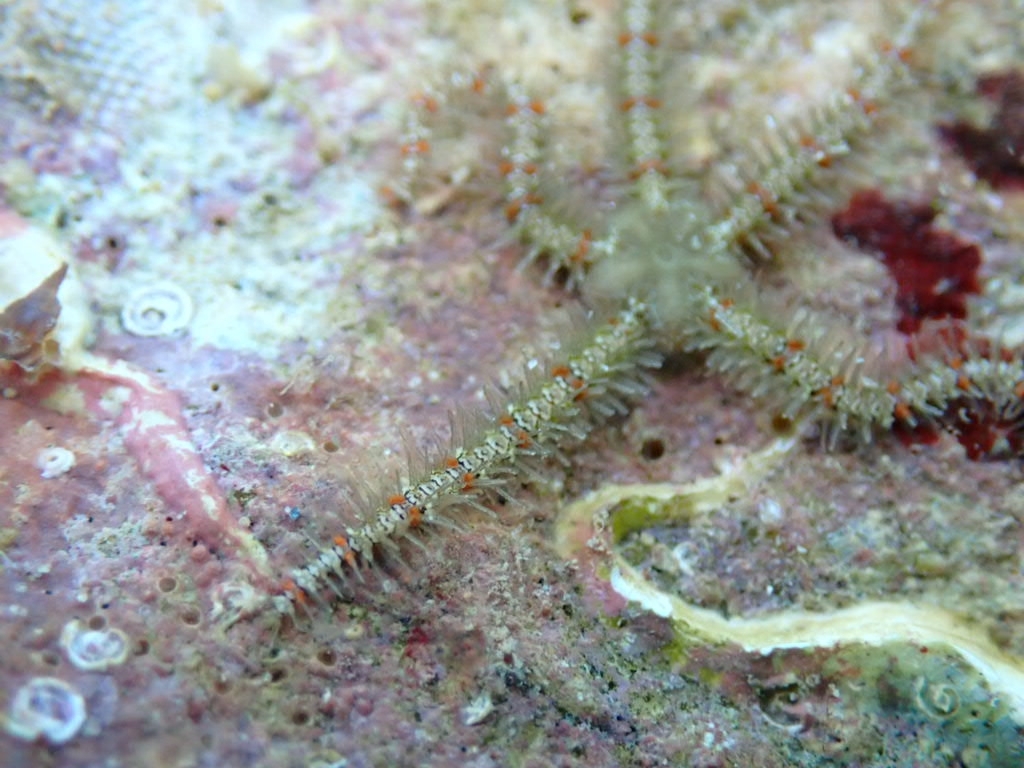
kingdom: Animalia
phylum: Echinodermata
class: Ophiuroidea
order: Amphilepidida
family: Ophiotrichidae
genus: Ophiothrix
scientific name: Ophiothrix fragilis
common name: Common brittlestar
